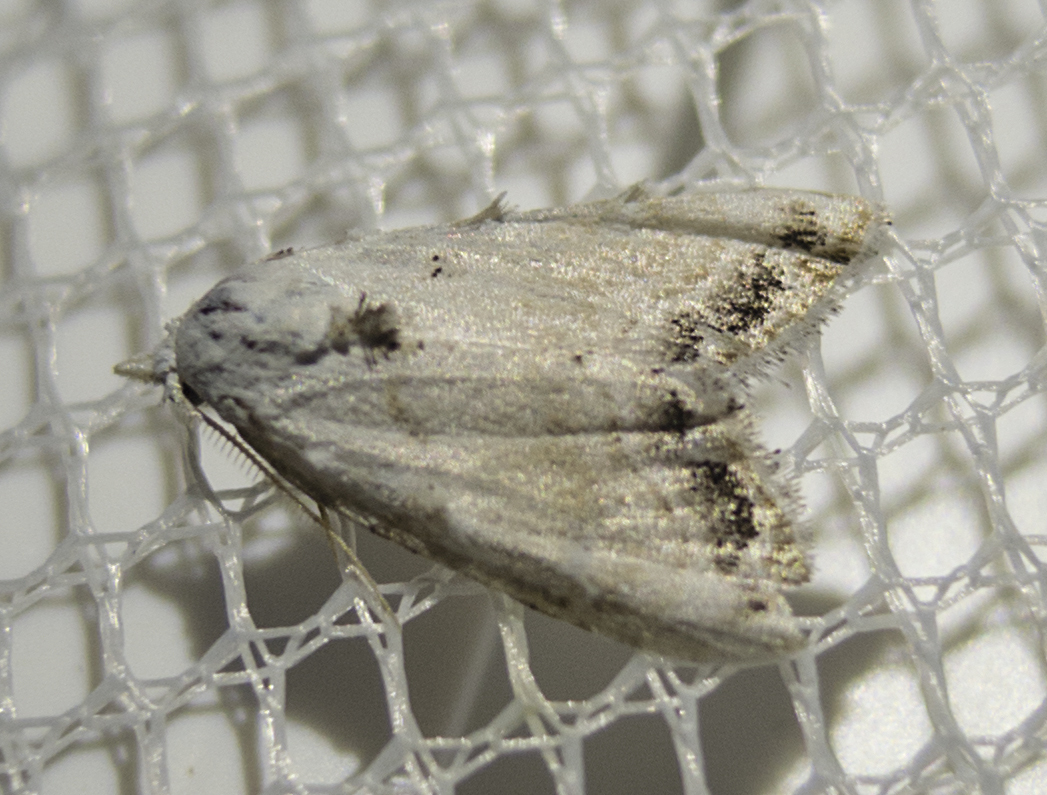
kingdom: Animalia
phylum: Arthropoda
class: Insecta
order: Lepidoptera
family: Nolidae
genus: Nola
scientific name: Nola chlamitulalis
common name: Jersey black arches
